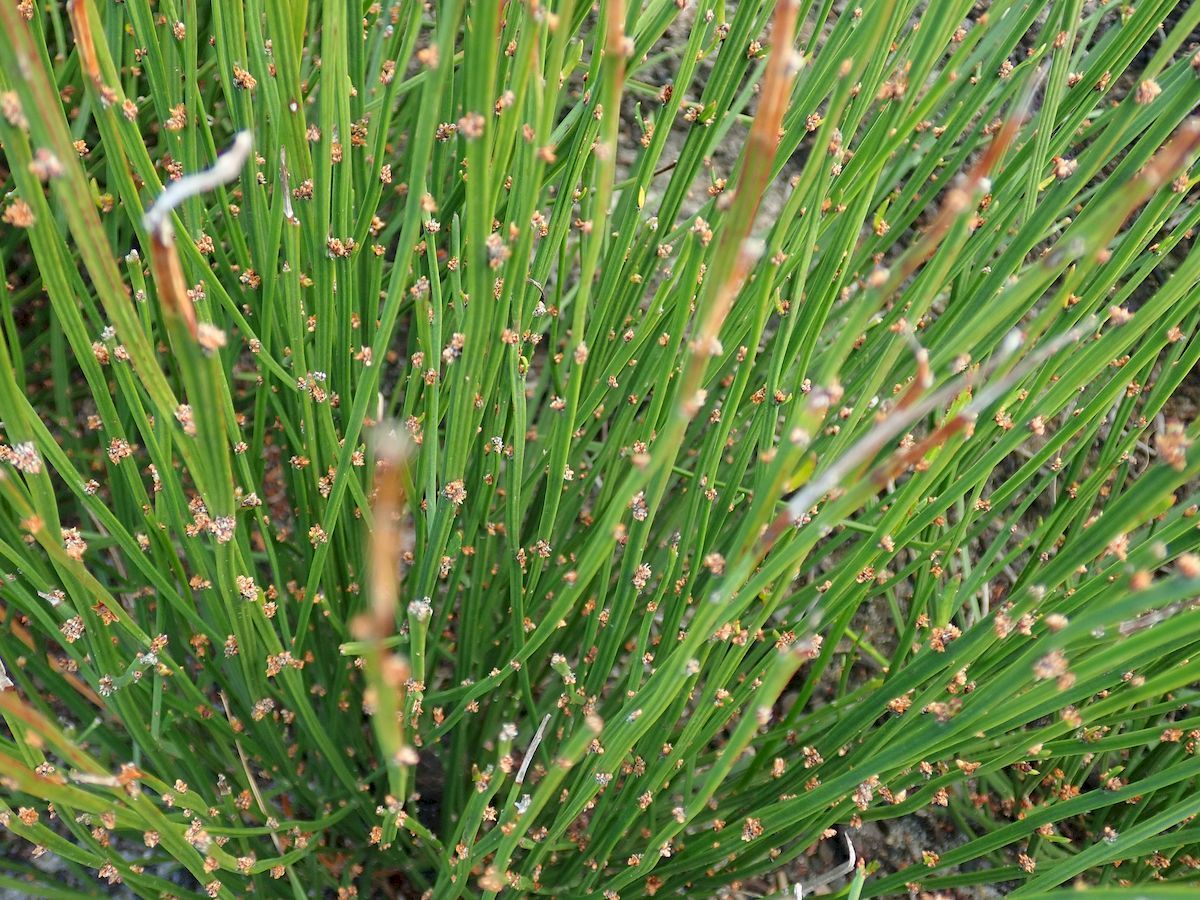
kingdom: Plantae
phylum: Tracheophyta
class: Magnoliopsida
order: Malpighiales
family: Euphorbiaceae
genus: Amperea
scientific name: Amperea xiphoclada
